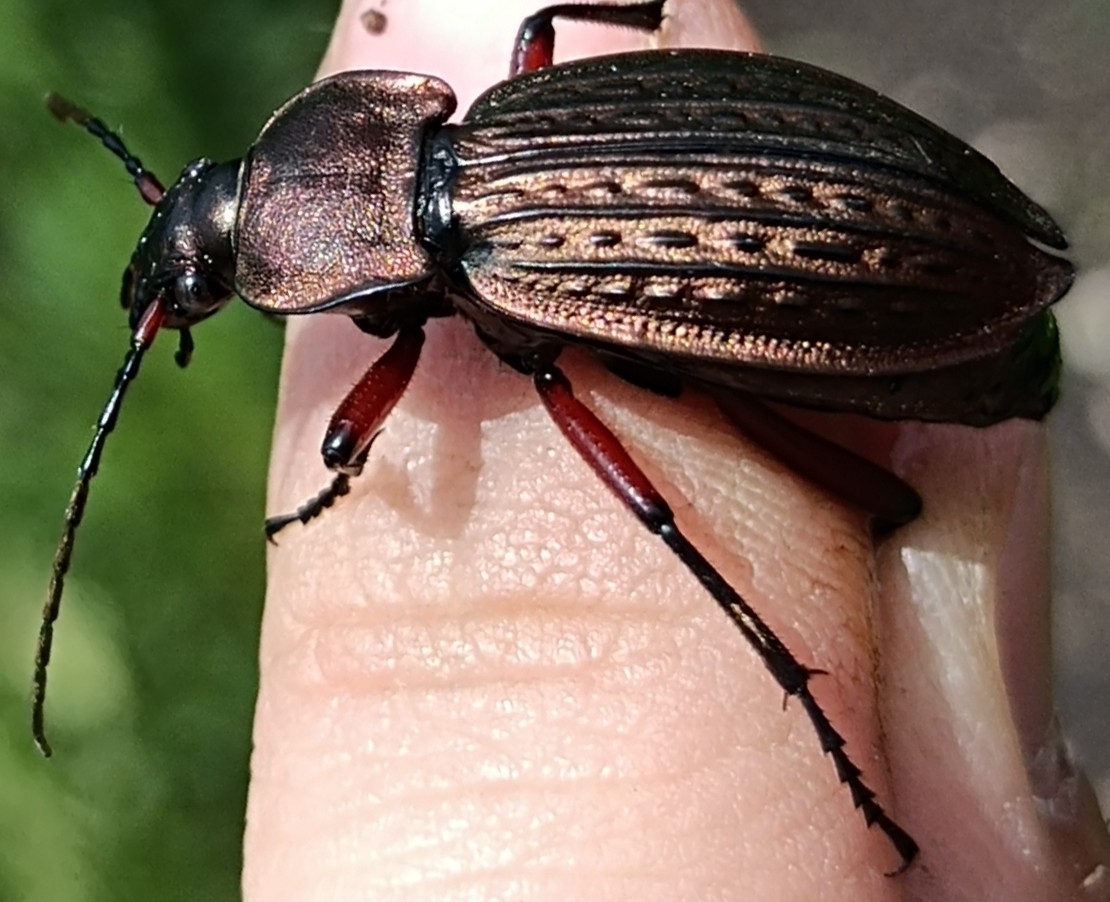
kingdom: Animalia
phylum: Arthropoda
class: Insecta
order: Coleoptera
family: Carabidae
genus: Carabus
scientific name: Carabus cancellatus
